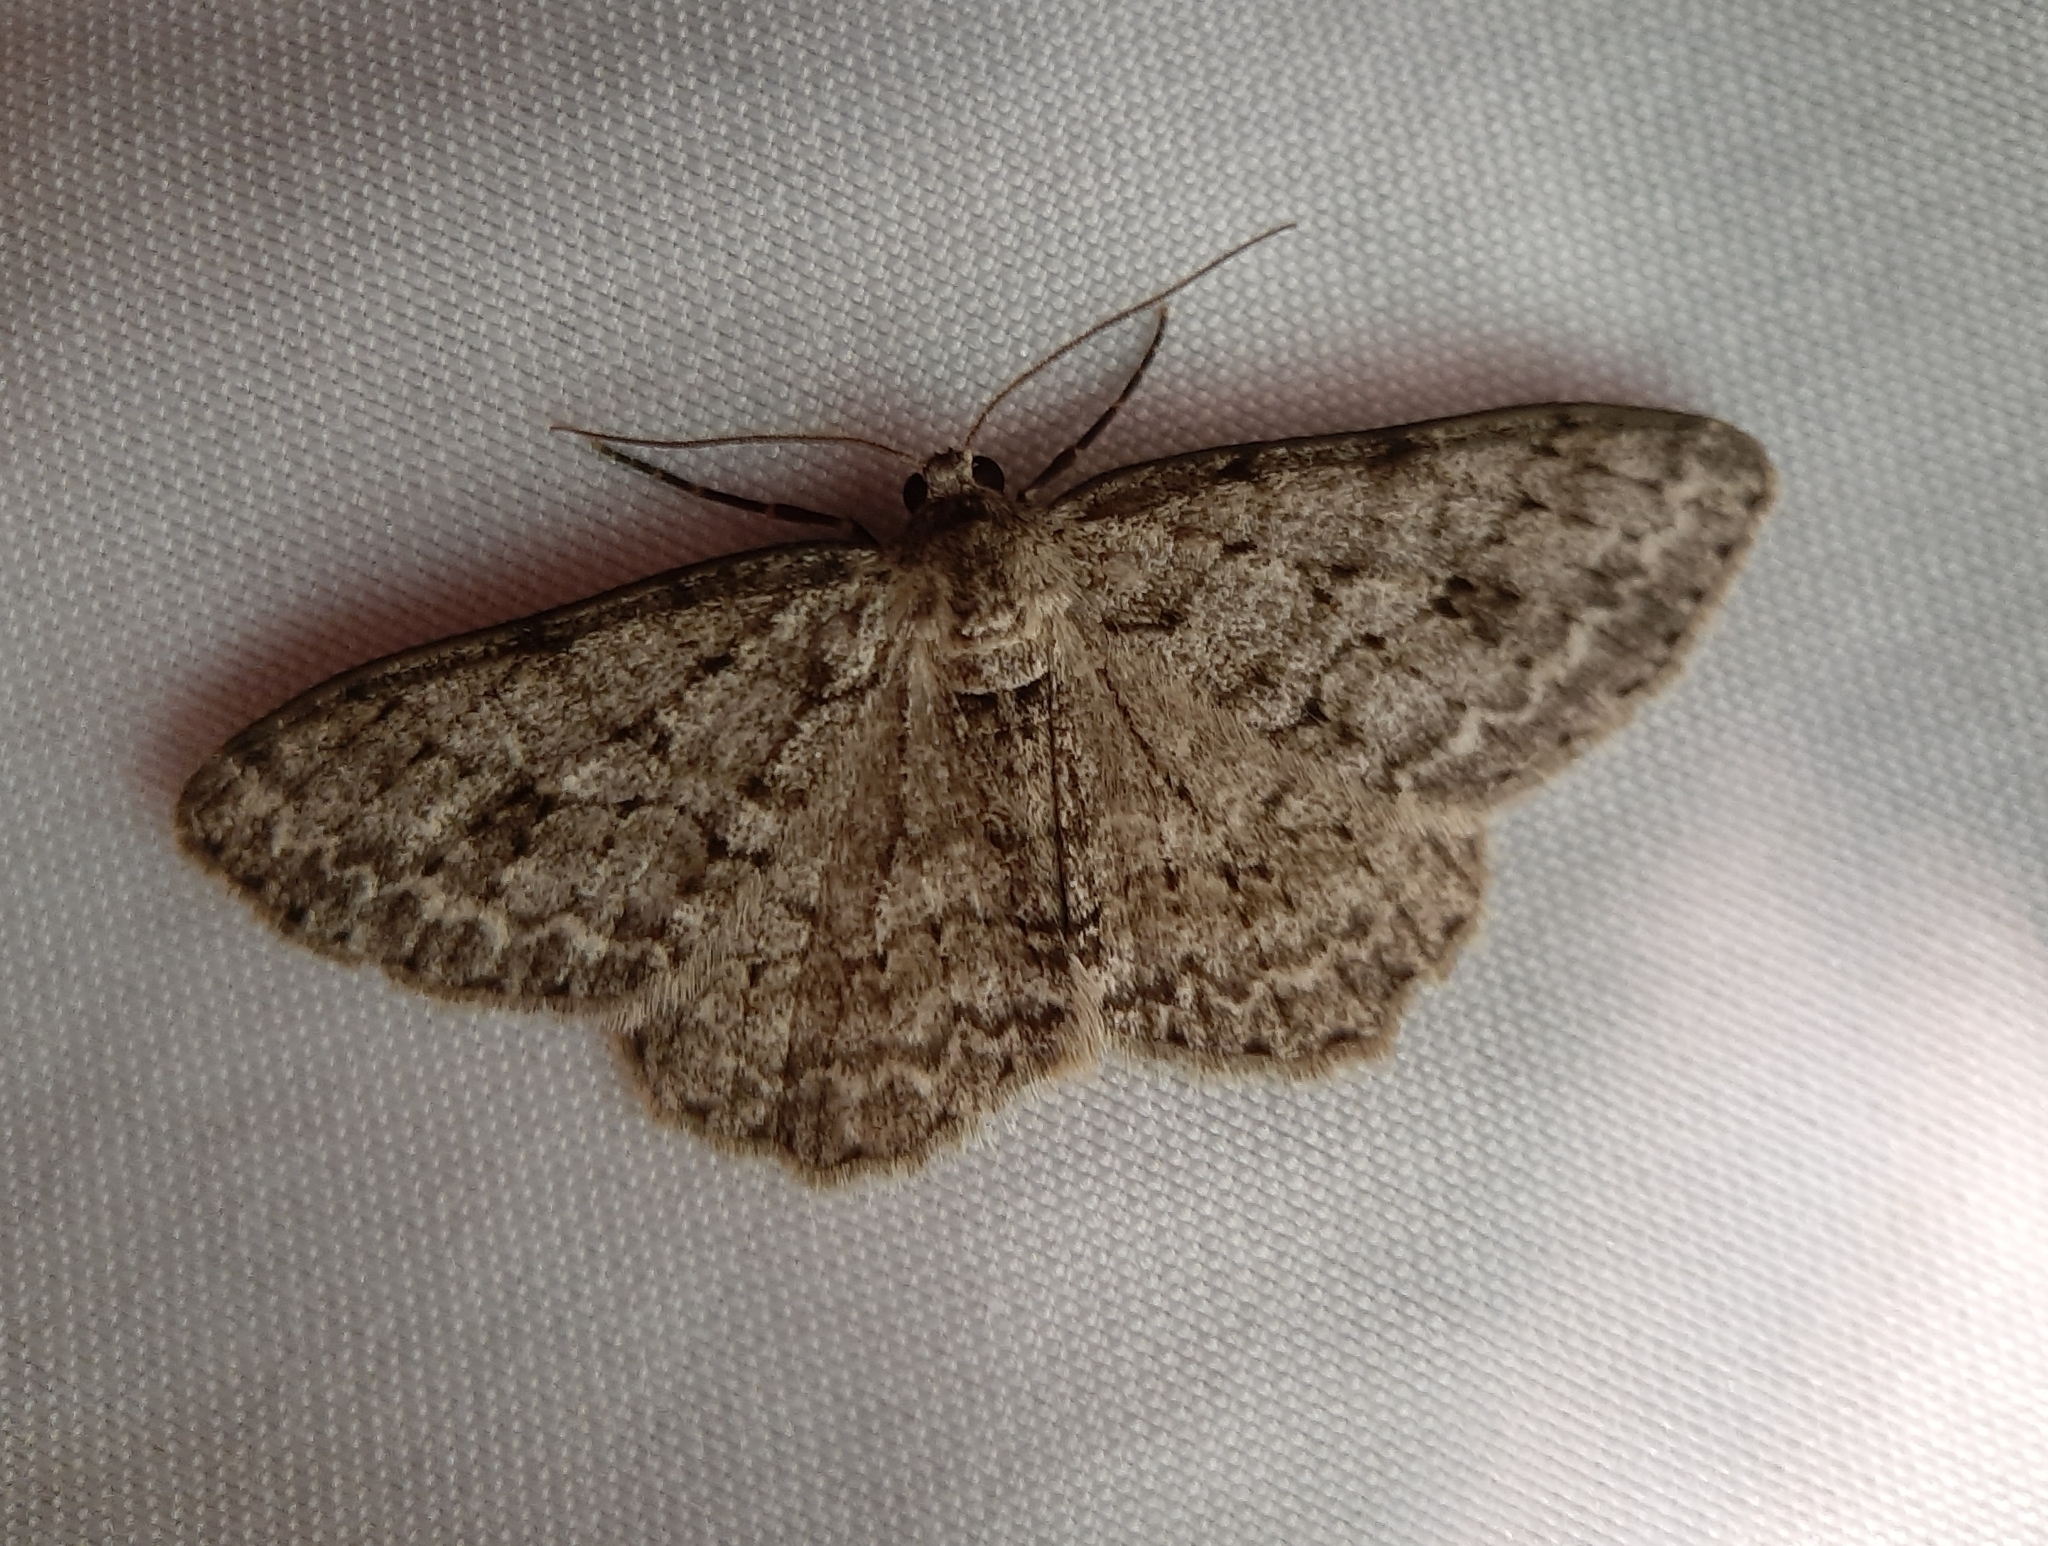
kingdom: Animalia
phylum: Arthropoda
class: Insecta
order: Lepidoptera
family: Geometridae
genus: Ectropis
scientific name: Ectropis crepuscularia
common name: Engrailed
